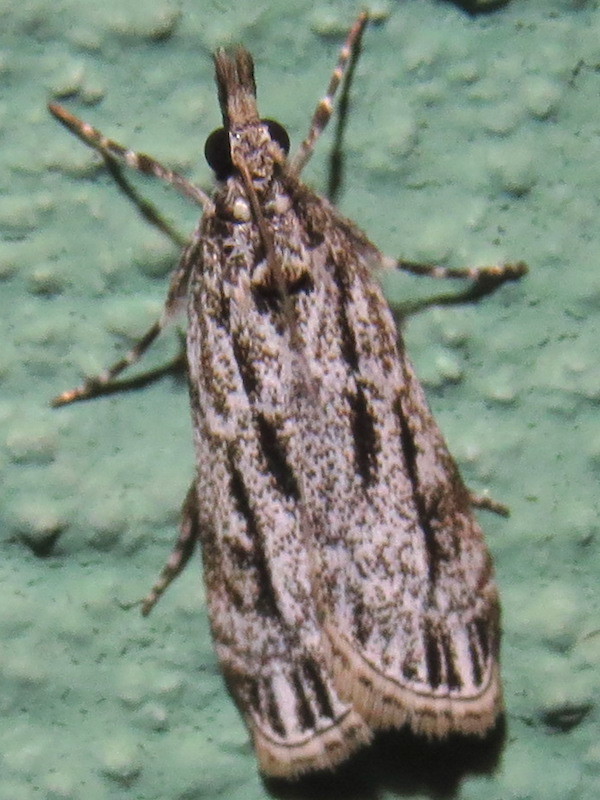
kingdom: Animalia
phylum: Arthropoda
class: Insecta
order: Lepidoptera
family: Crambidae
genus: Eudonia
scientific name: Eudonia strigalis
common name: Striped eudonia moth
